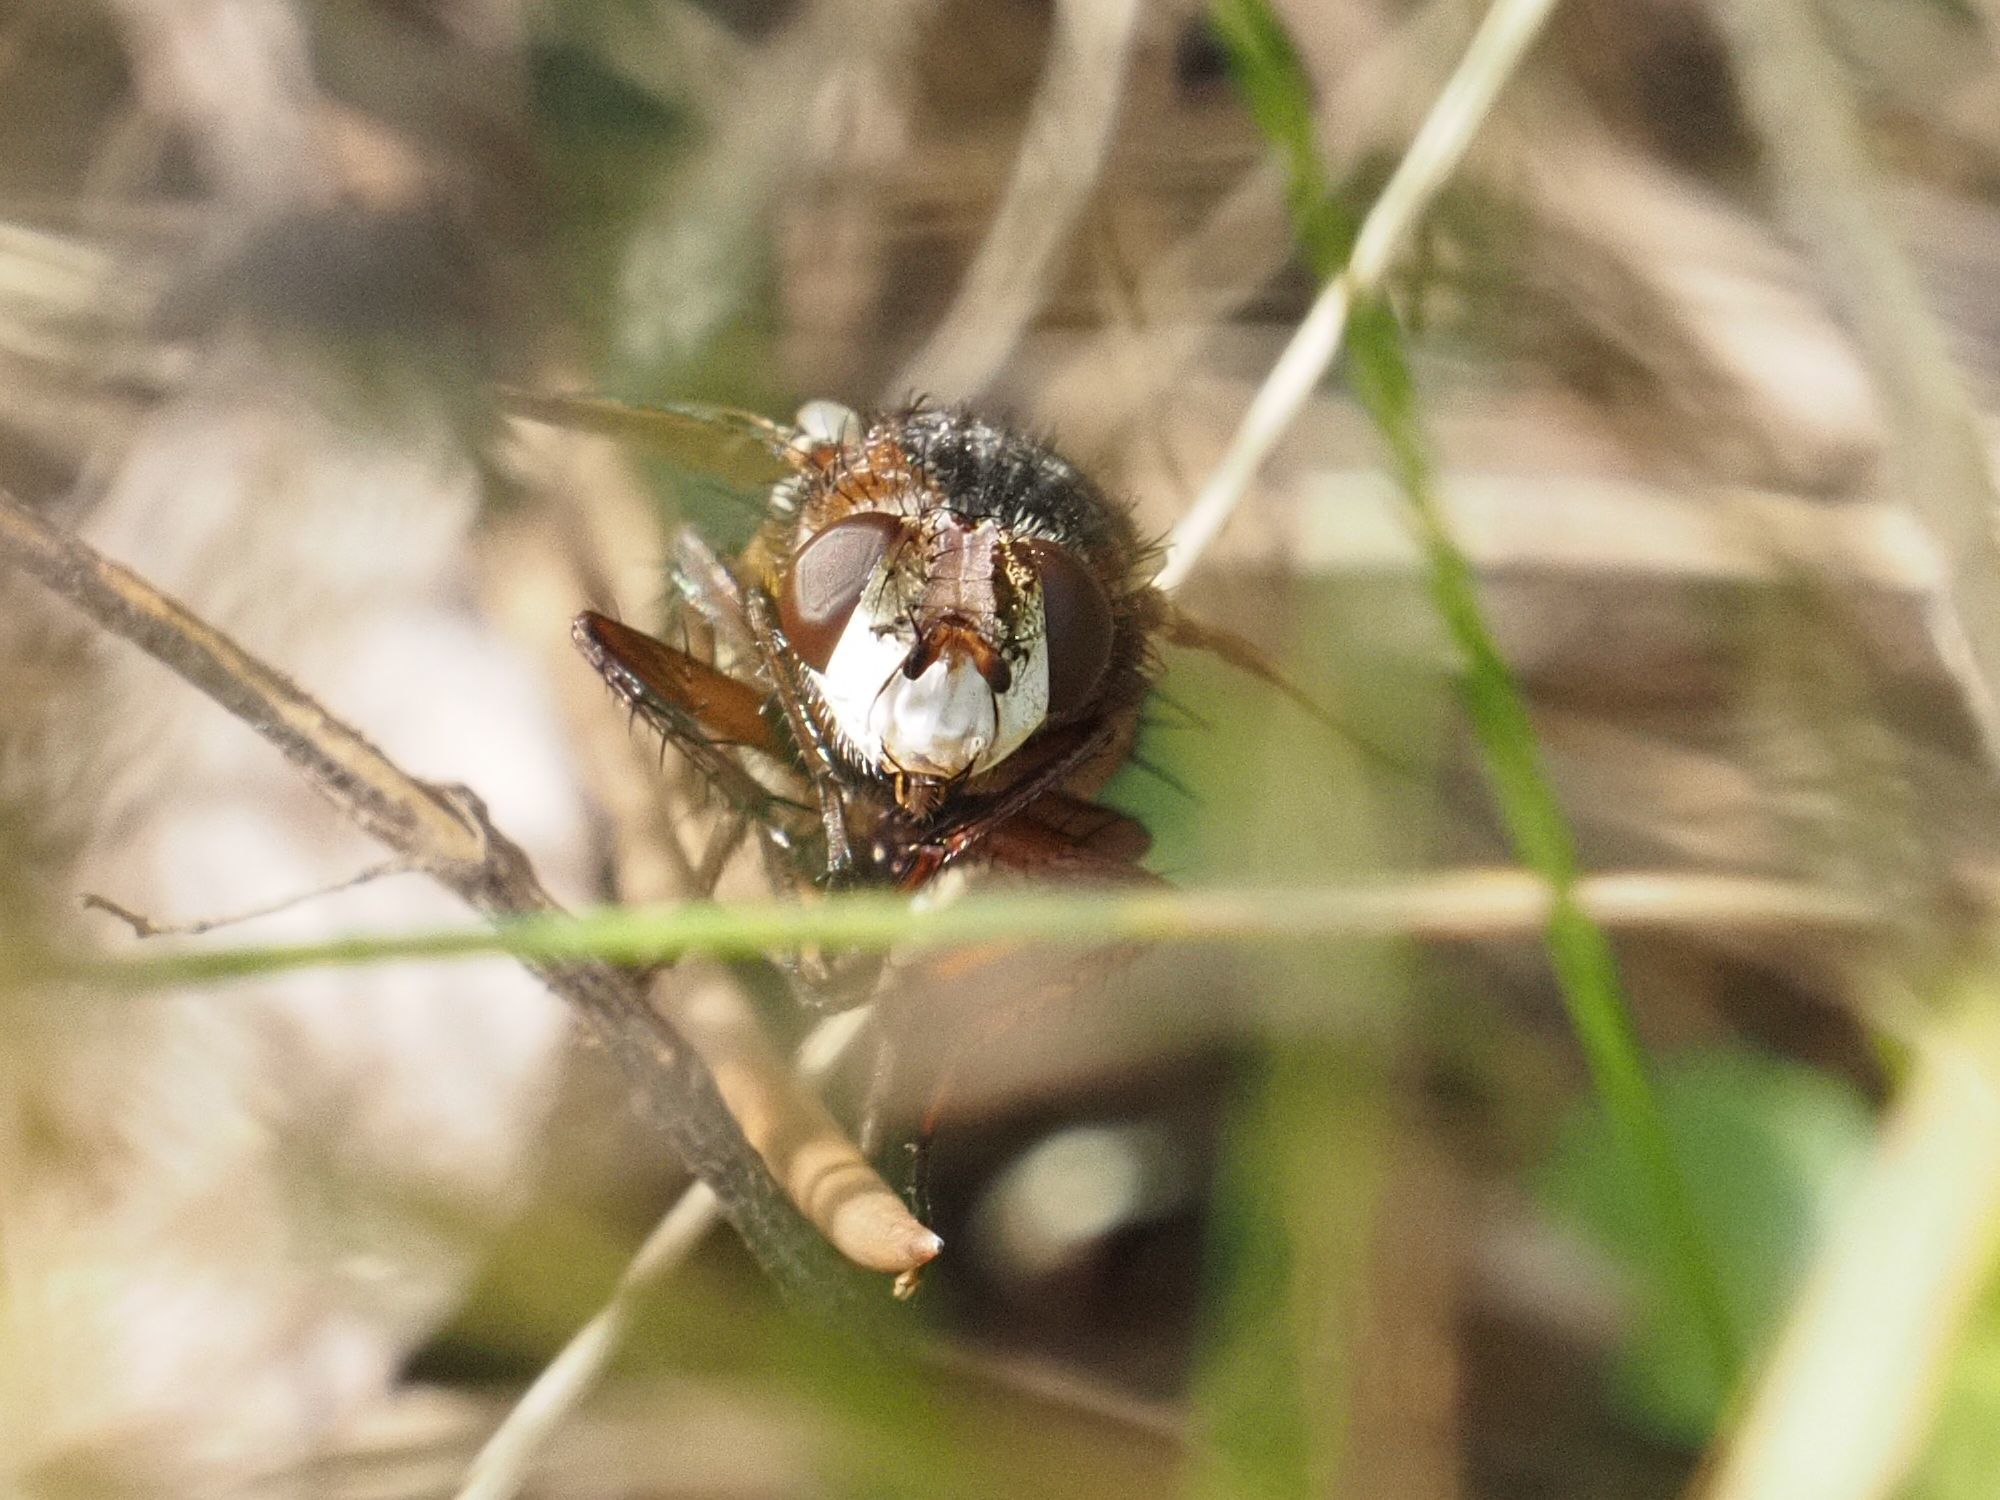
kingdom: Animalia
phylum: Arthropoda
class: Insecta
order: Diptera
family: Tachinidae
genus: Tachina
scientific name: Tachina fera
